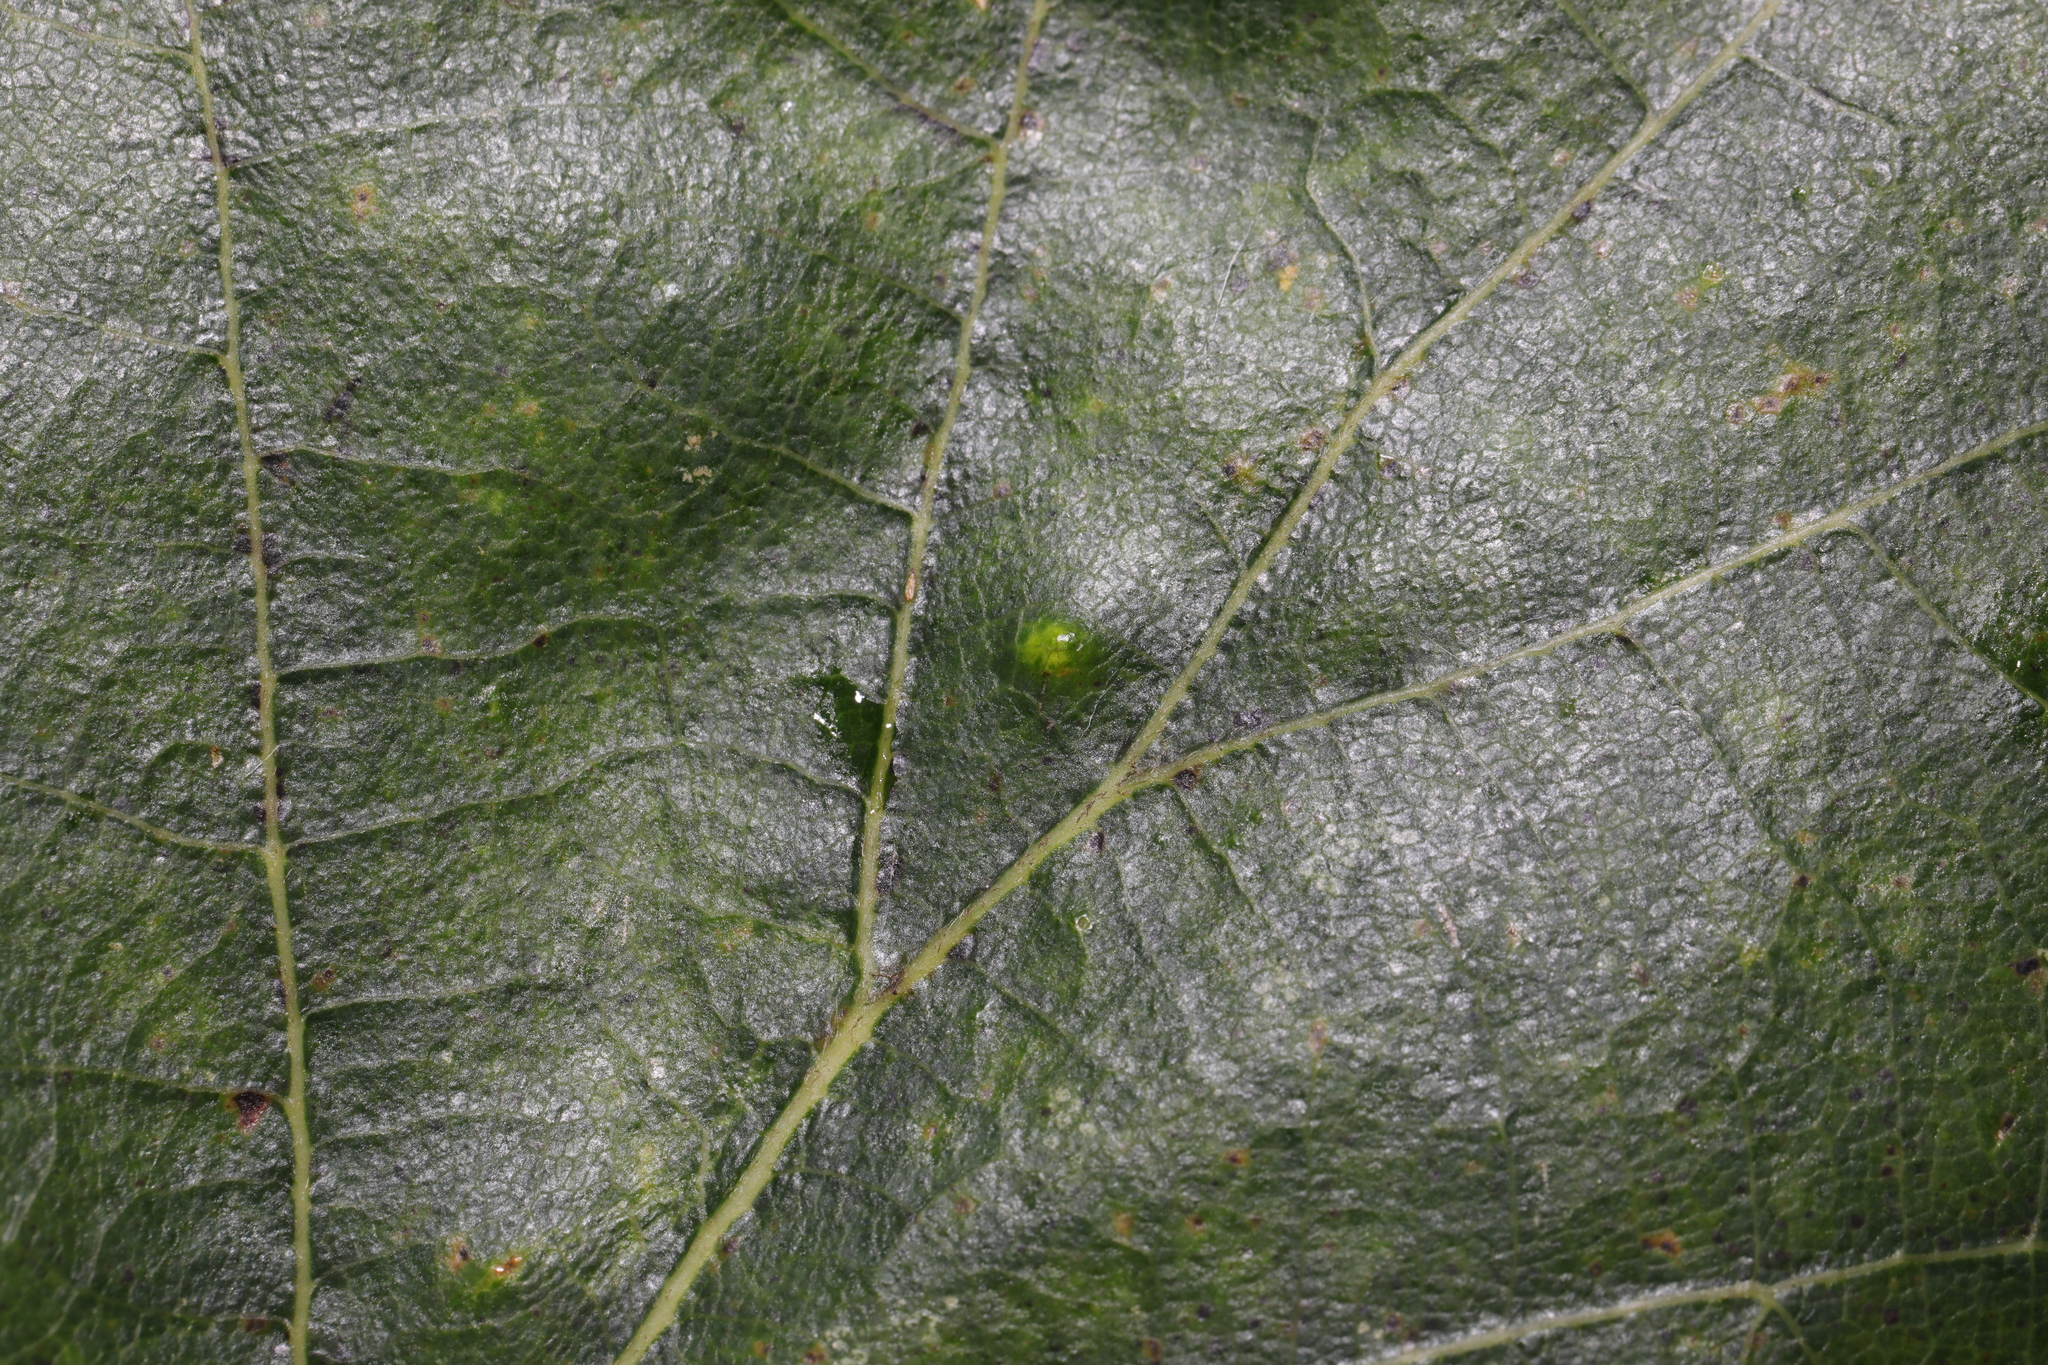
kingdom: Animalia
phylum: Arthropoda
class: Insecta
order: Hemiptera
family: Triozidae
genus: Trioza
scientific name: Trioza remota
